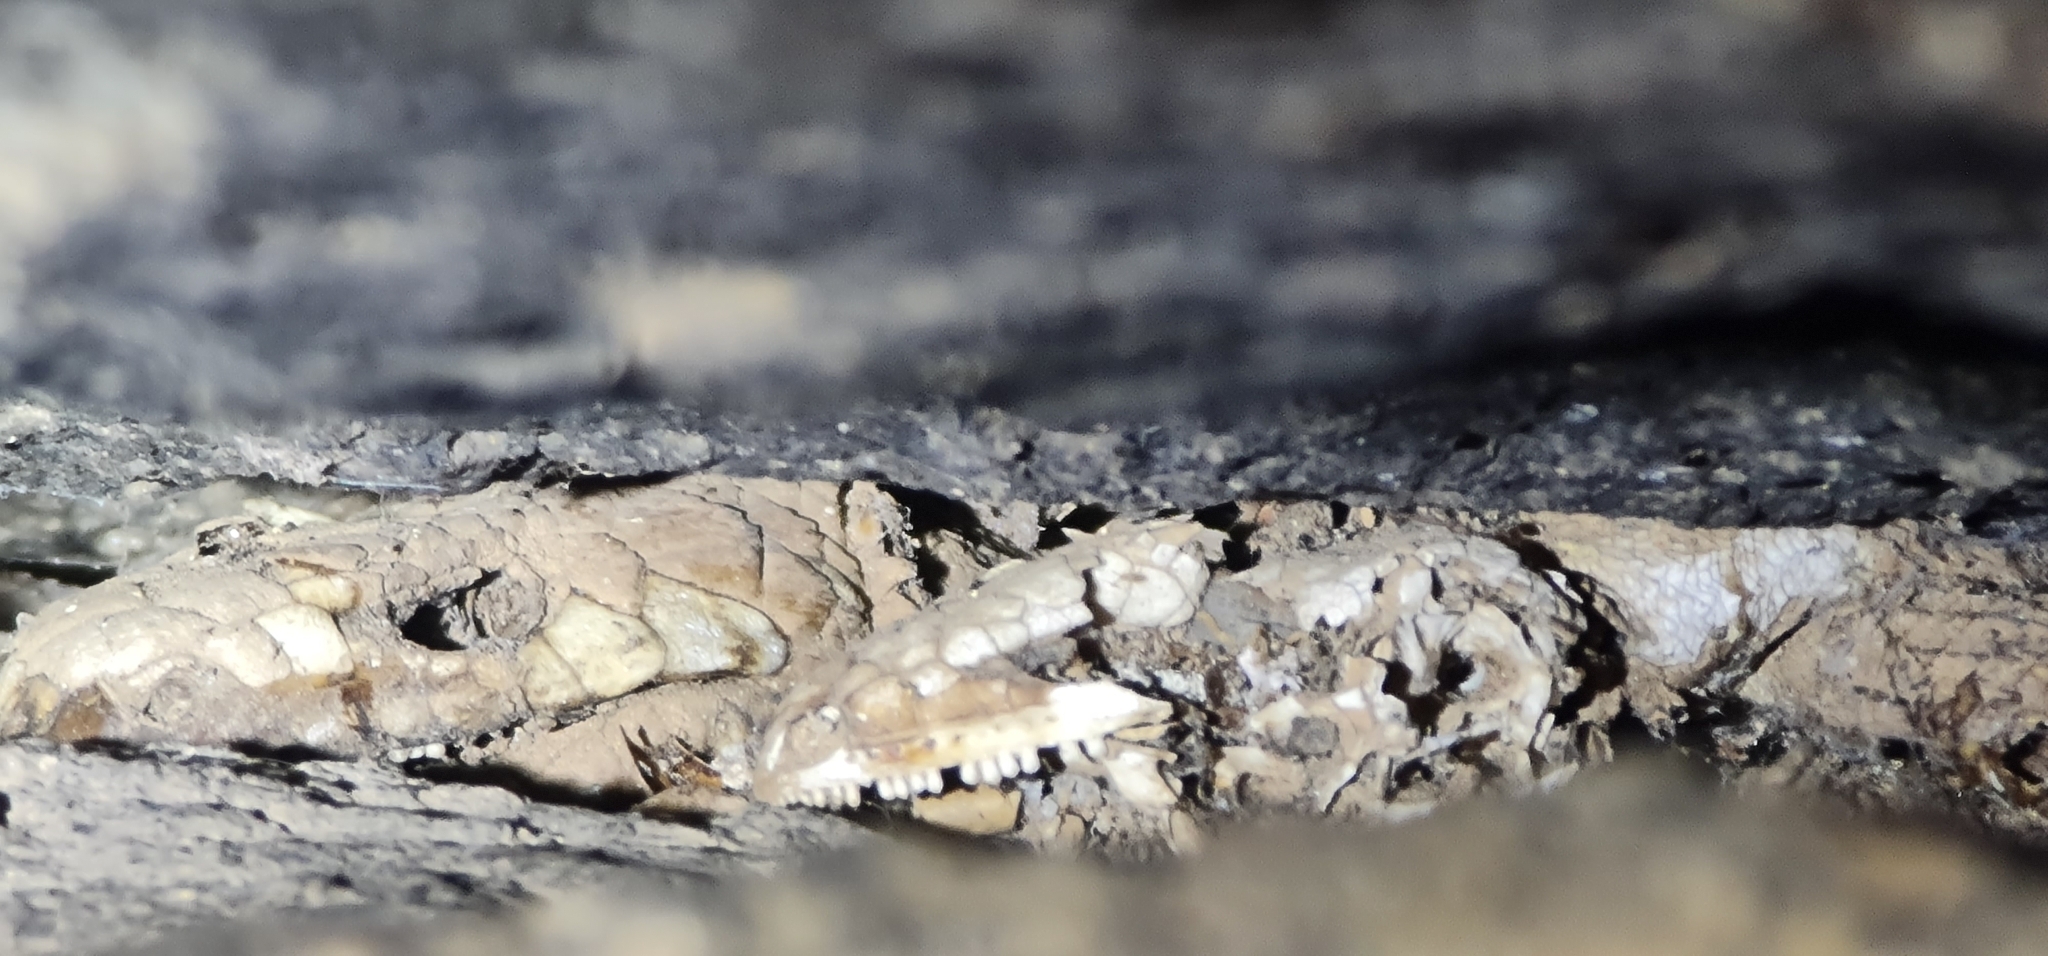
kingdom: Animalia
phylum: Chordata
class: Squamata
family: Scincidae
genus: Egernia
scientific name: Egernia cunninghami
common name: Cunningham's skink
